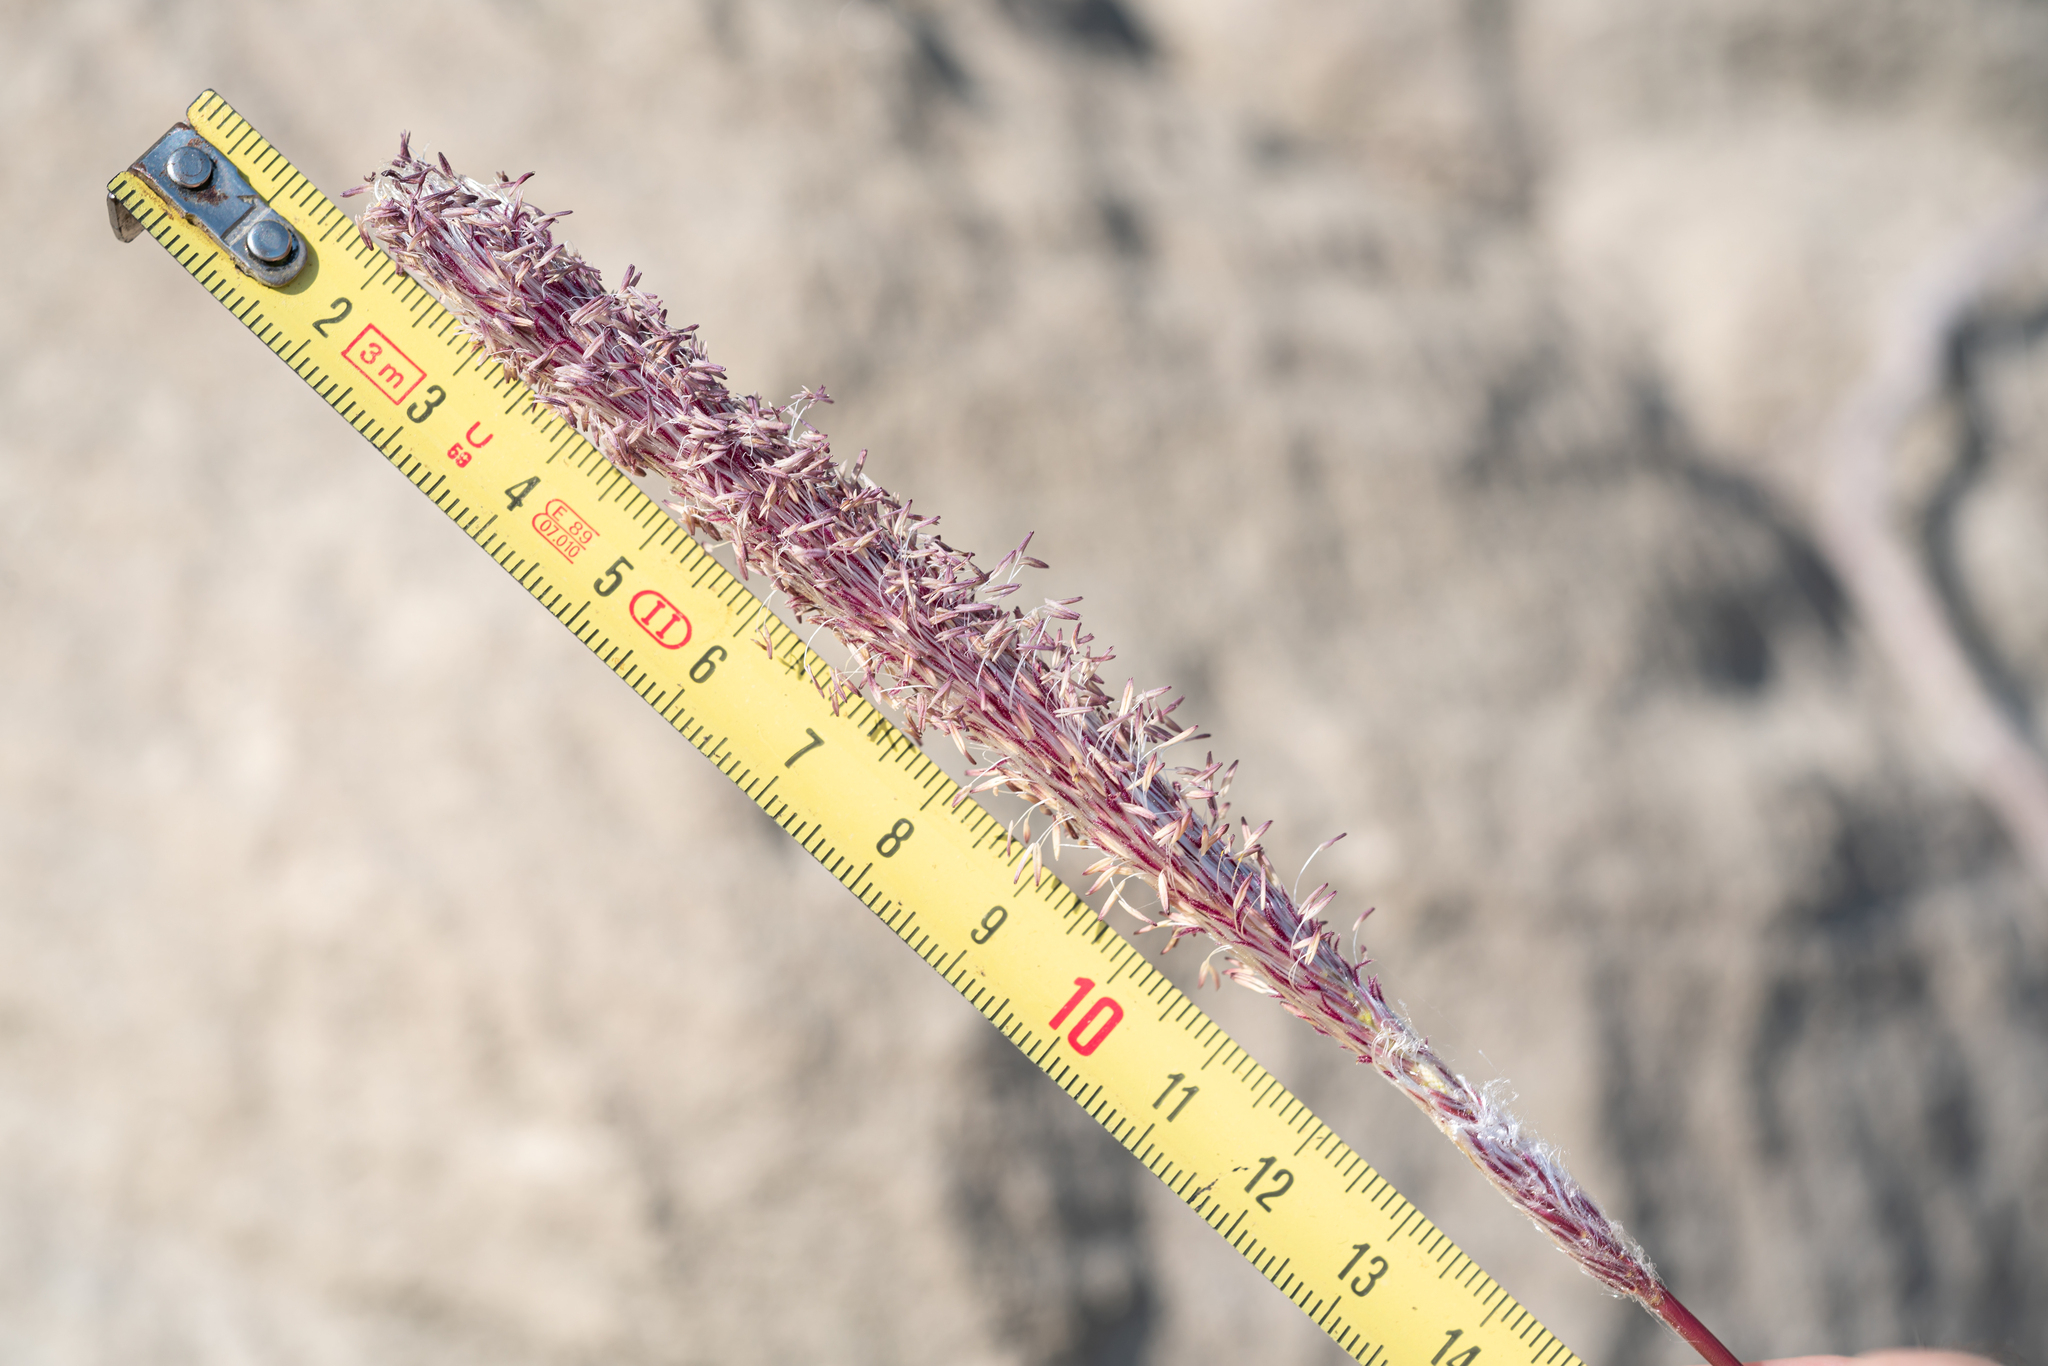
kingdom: Plantae
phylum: Tracheophyta
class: Liliopsida
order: Poales
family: Poaceae
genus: Imperata
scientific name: Imperata cylindrica
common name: Cogongrass
